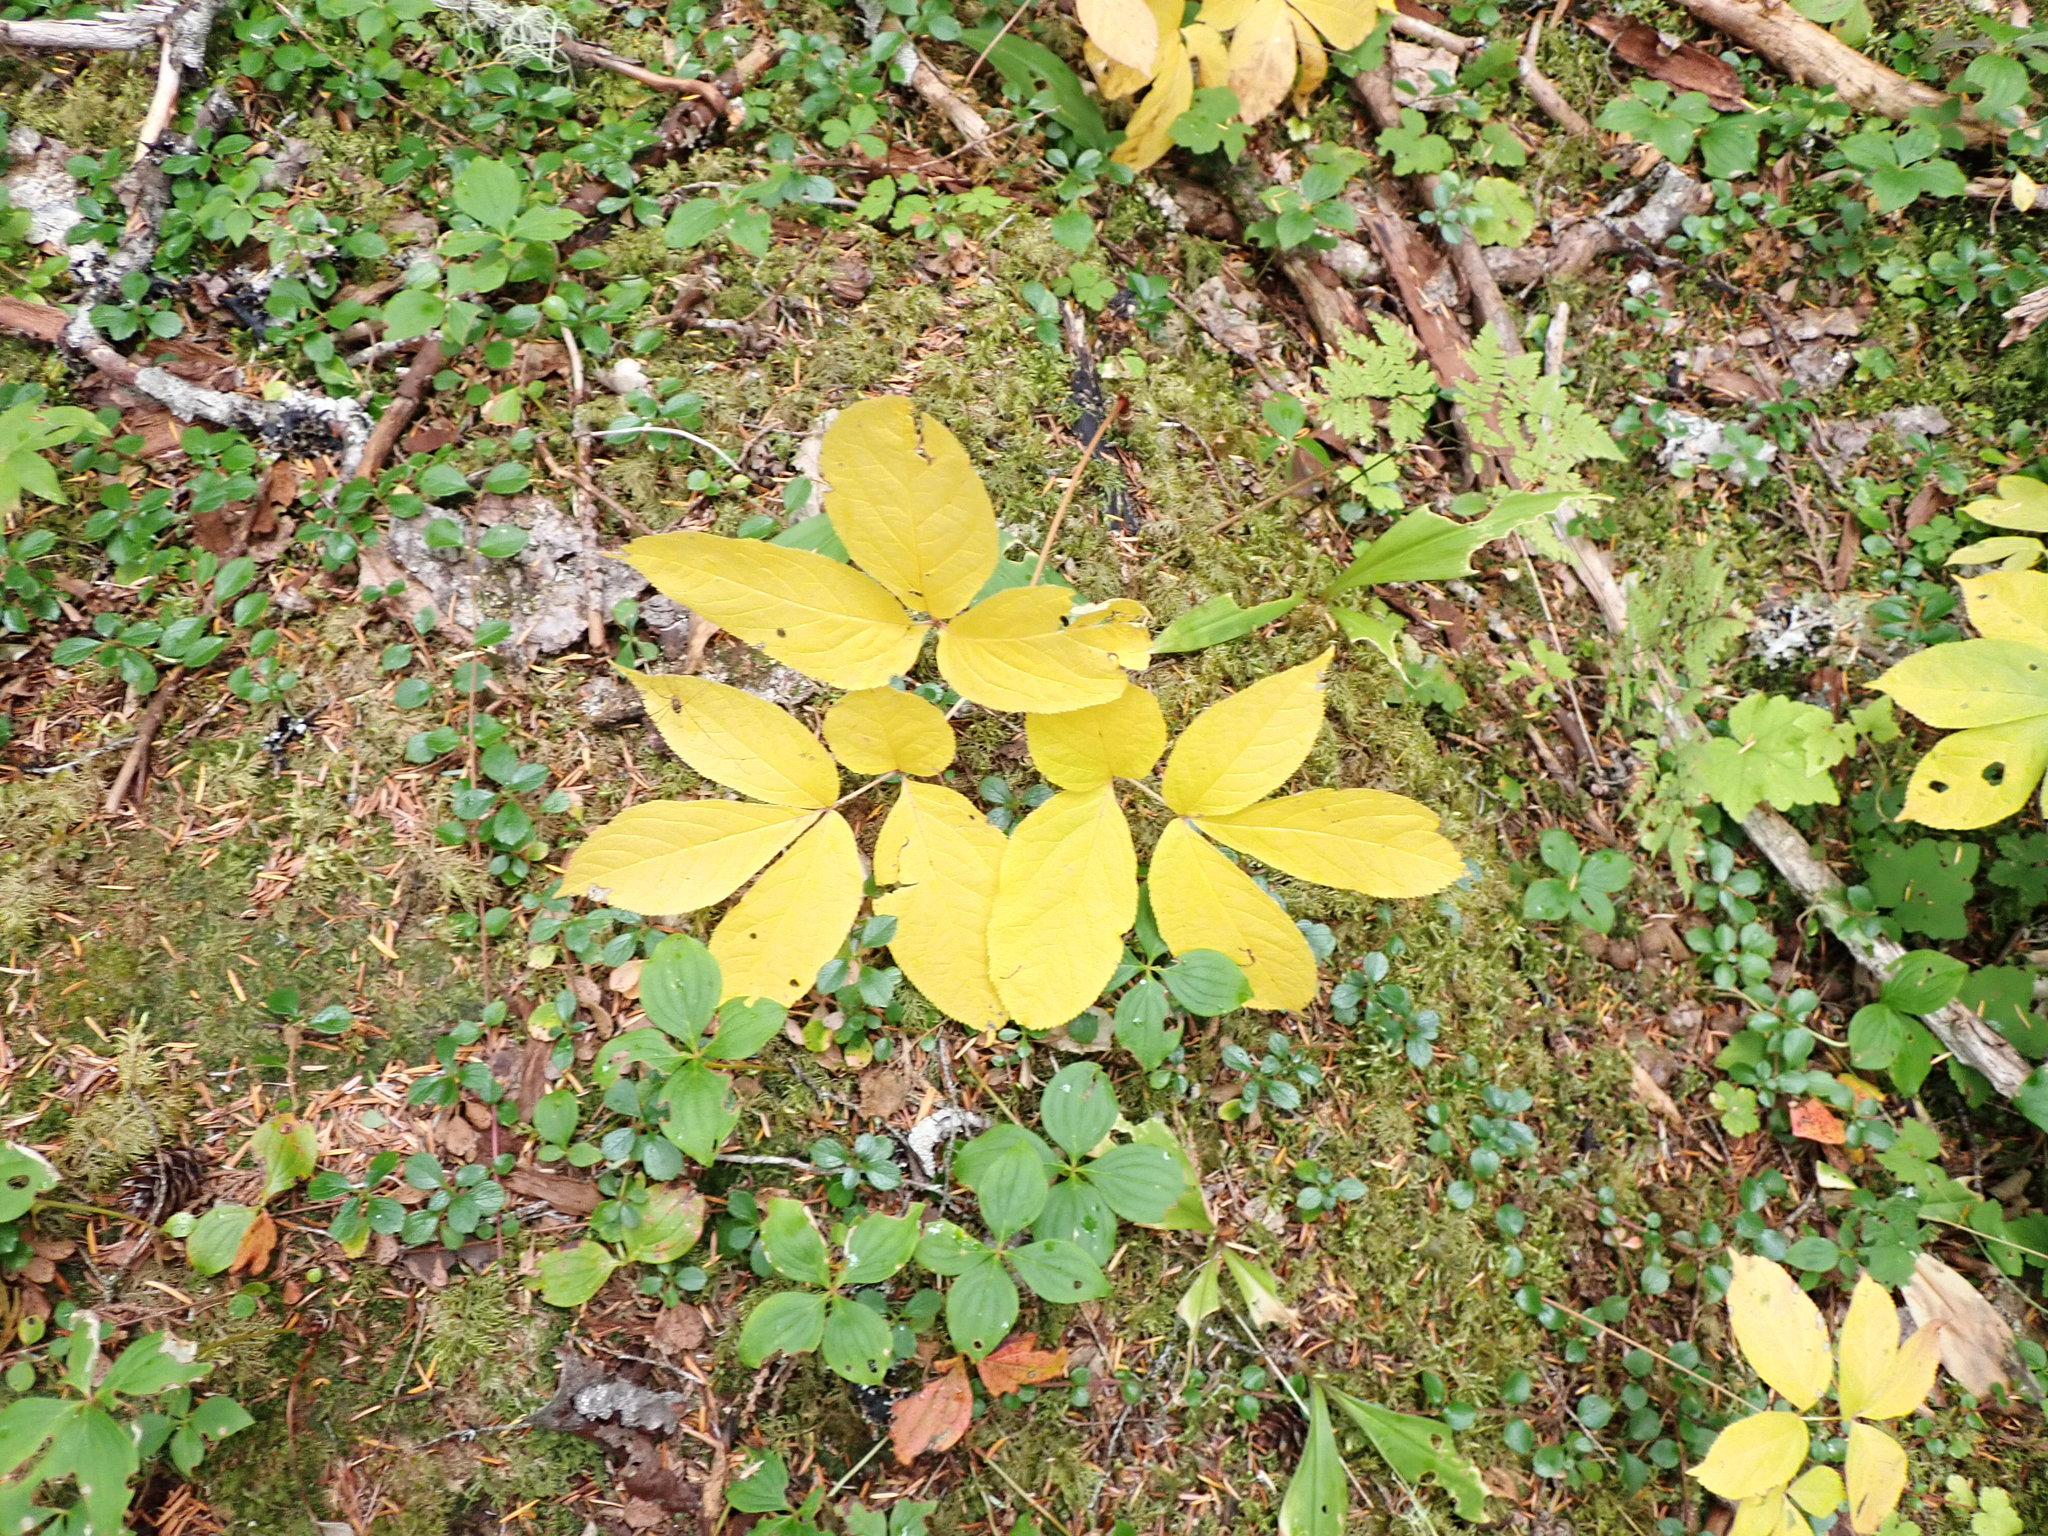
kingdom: Plantae
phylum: Tracheophyta
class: Magnoliopsida
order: Apiales
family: Araliaceae
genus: Aralia
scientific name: Aralia nudicaulis
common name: Wild sarsaparilla
